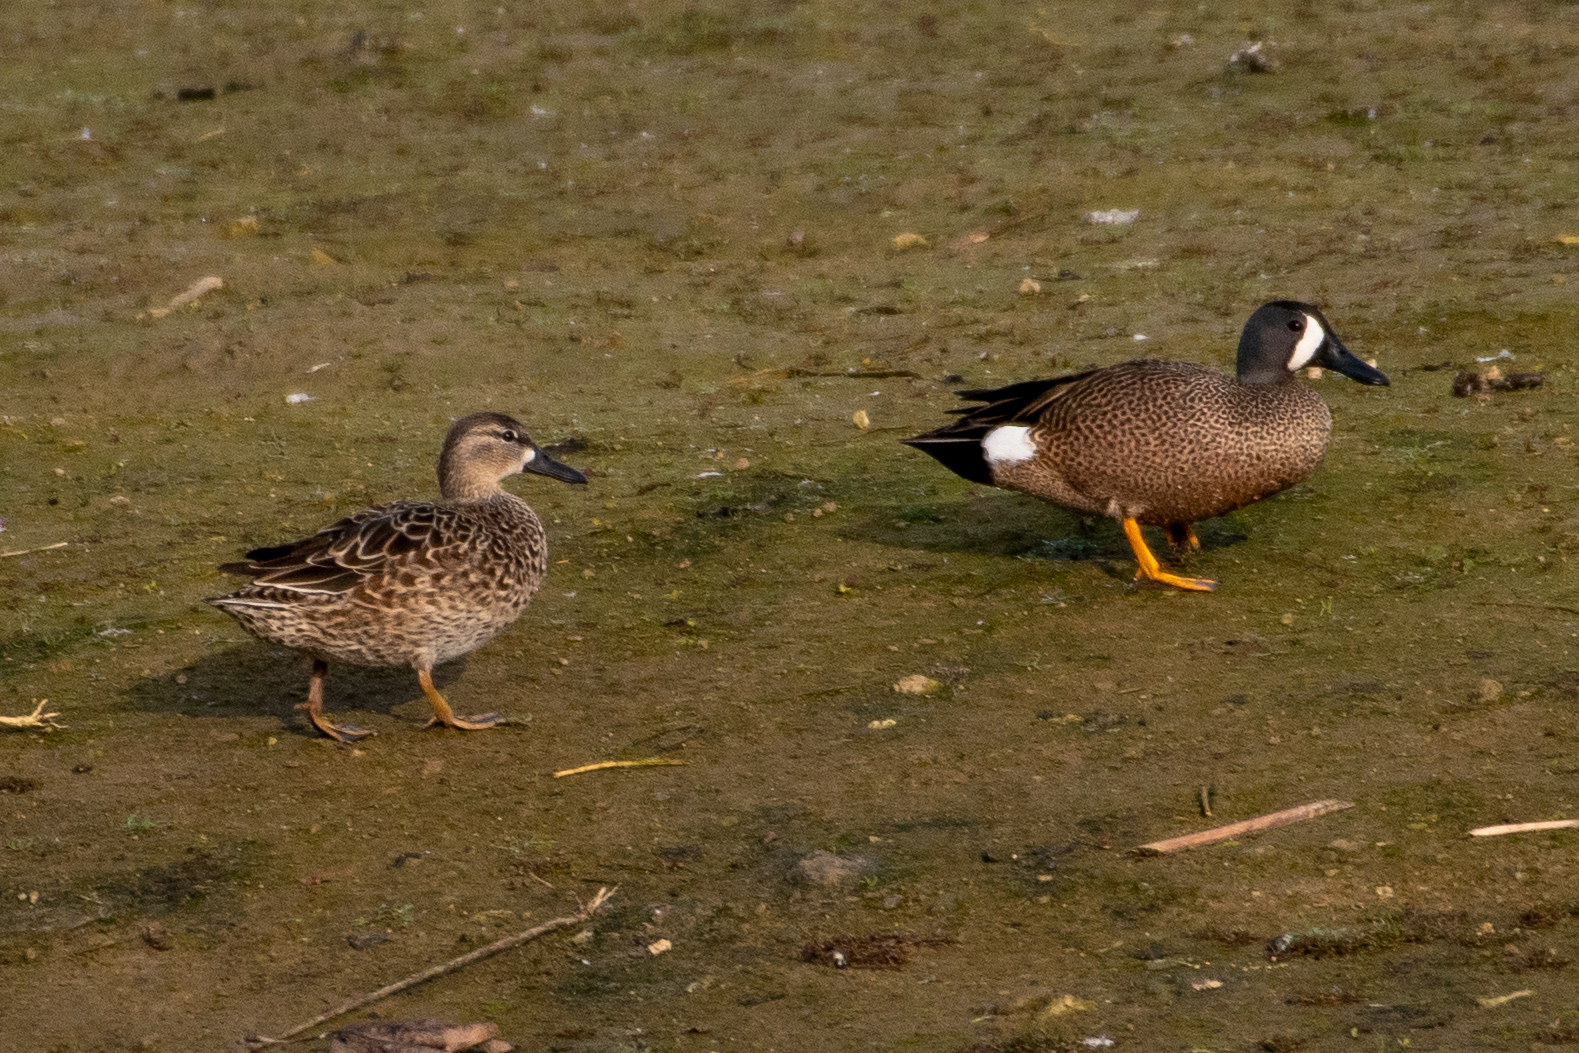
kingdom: Animalia
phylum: Chordata
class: Aves
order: Anseriformes
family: Anatidae
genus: Spatula
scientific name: Spatula discors
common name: Blue-winged teal
